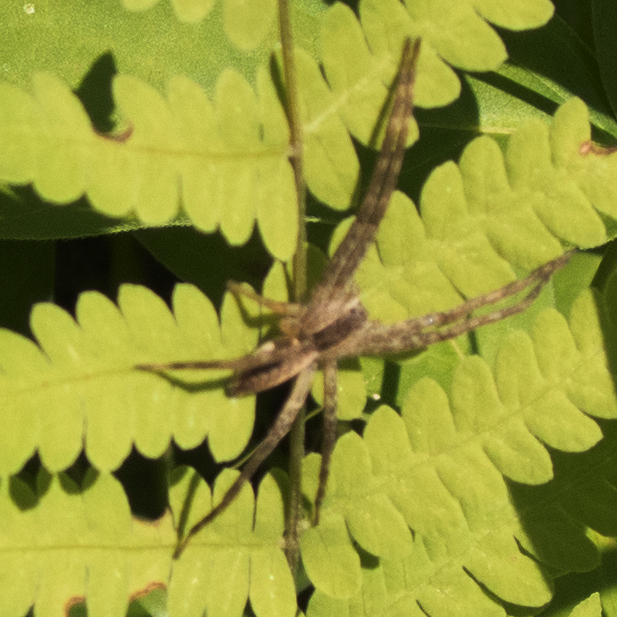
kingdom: Animalia
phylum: Arthropoda
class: Arachnida
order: Araneae
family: Pisauridae
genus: Pisaurina
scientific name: Pisaurina mira
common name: American nursery web spider
